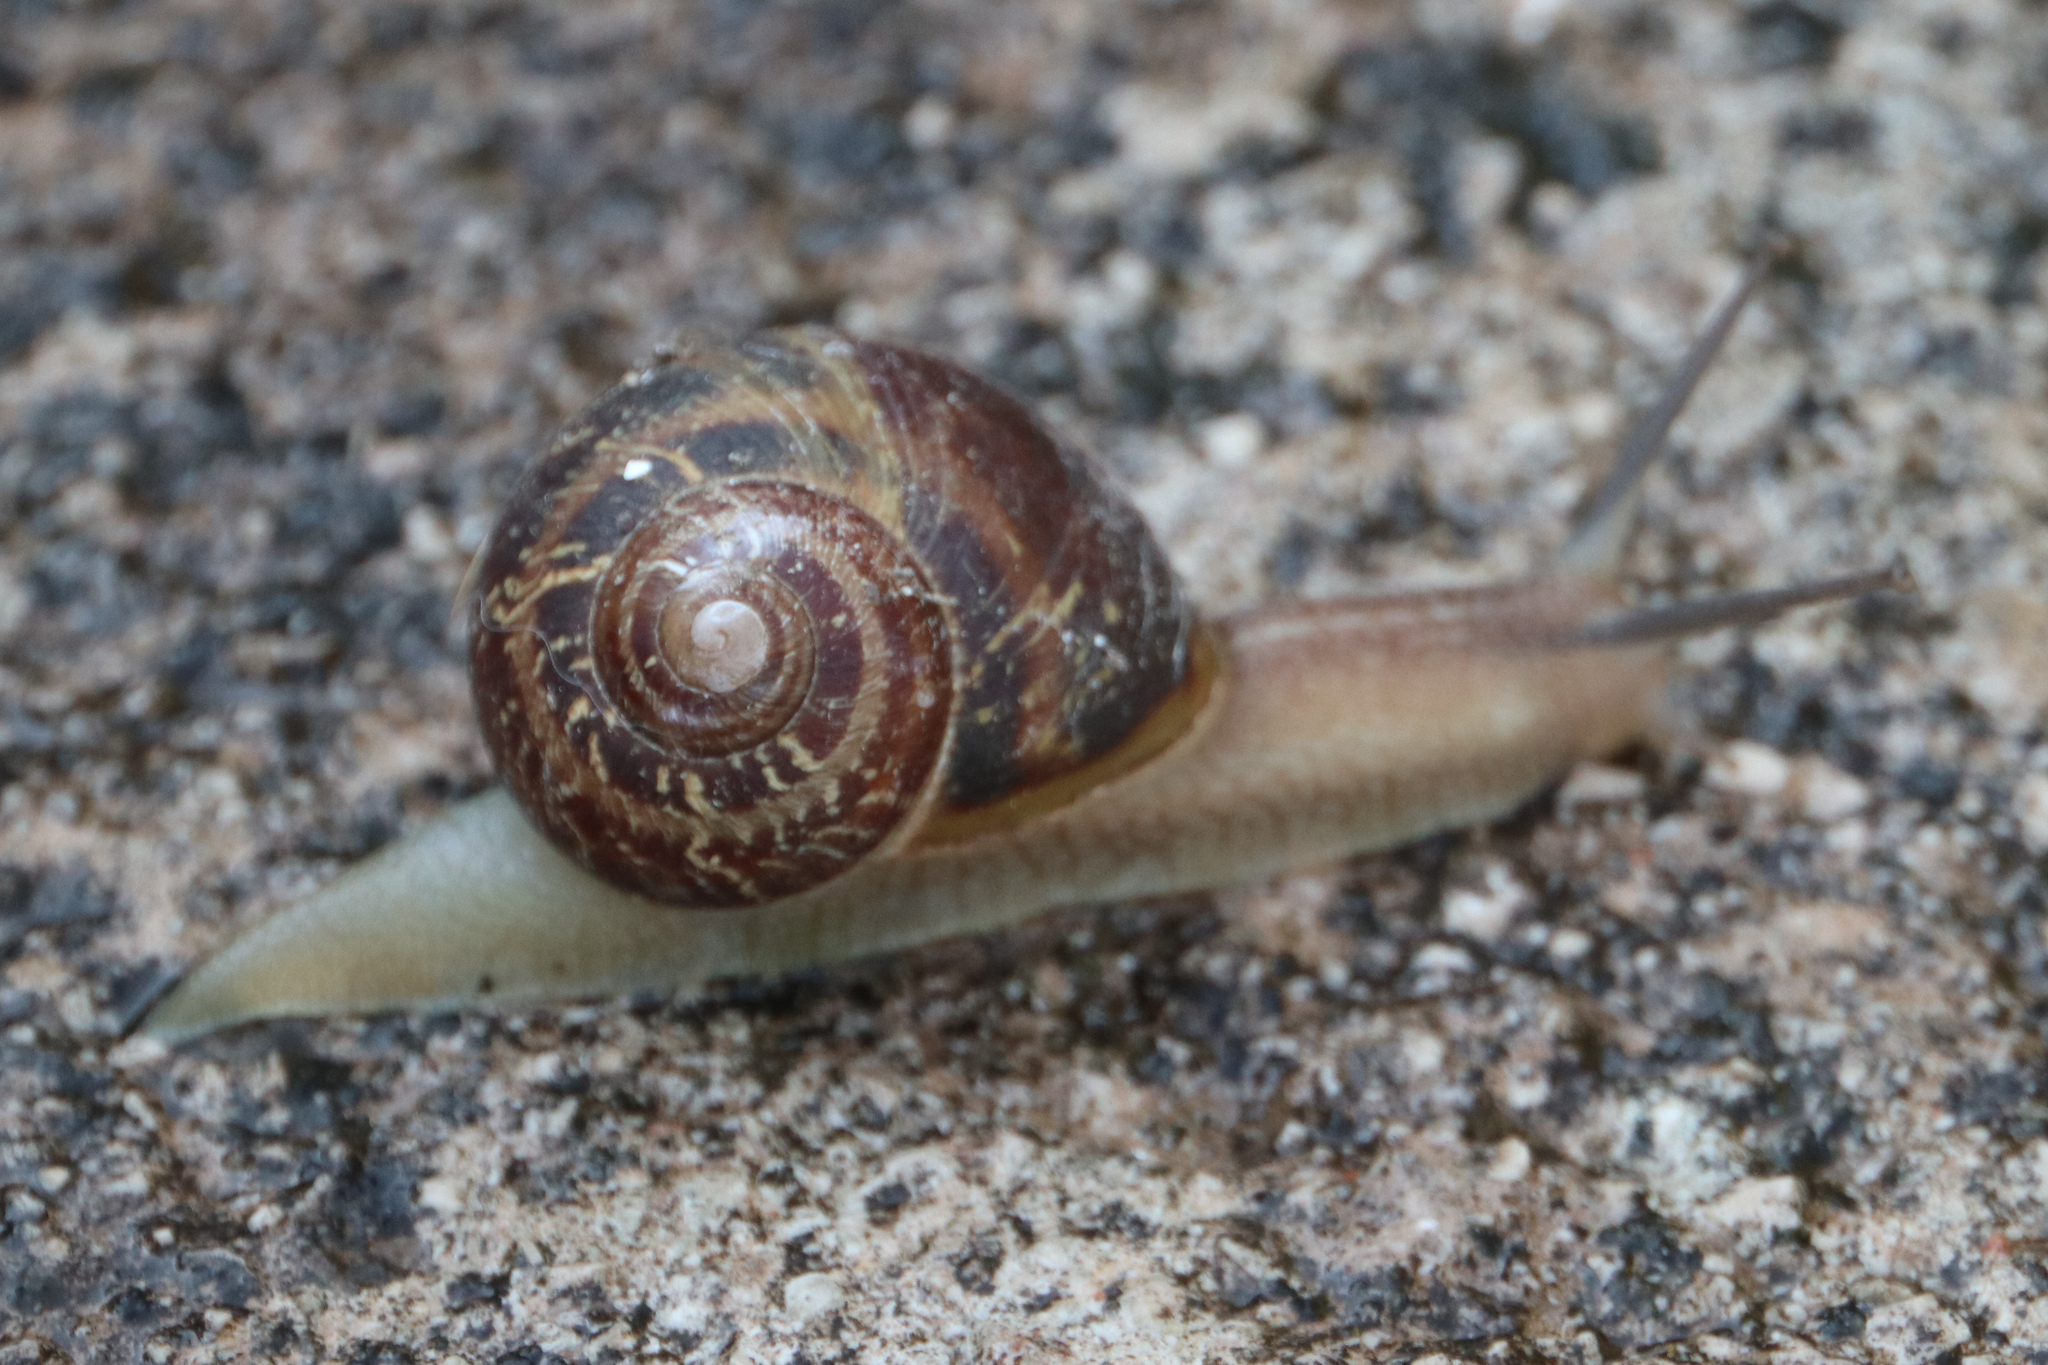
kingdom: Animalia
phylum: Mollusca
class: Gastropoda
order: Stylommatophora
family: Helicidae
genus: Cornu
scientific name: Cornu aspersum
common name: Brown garden snail
